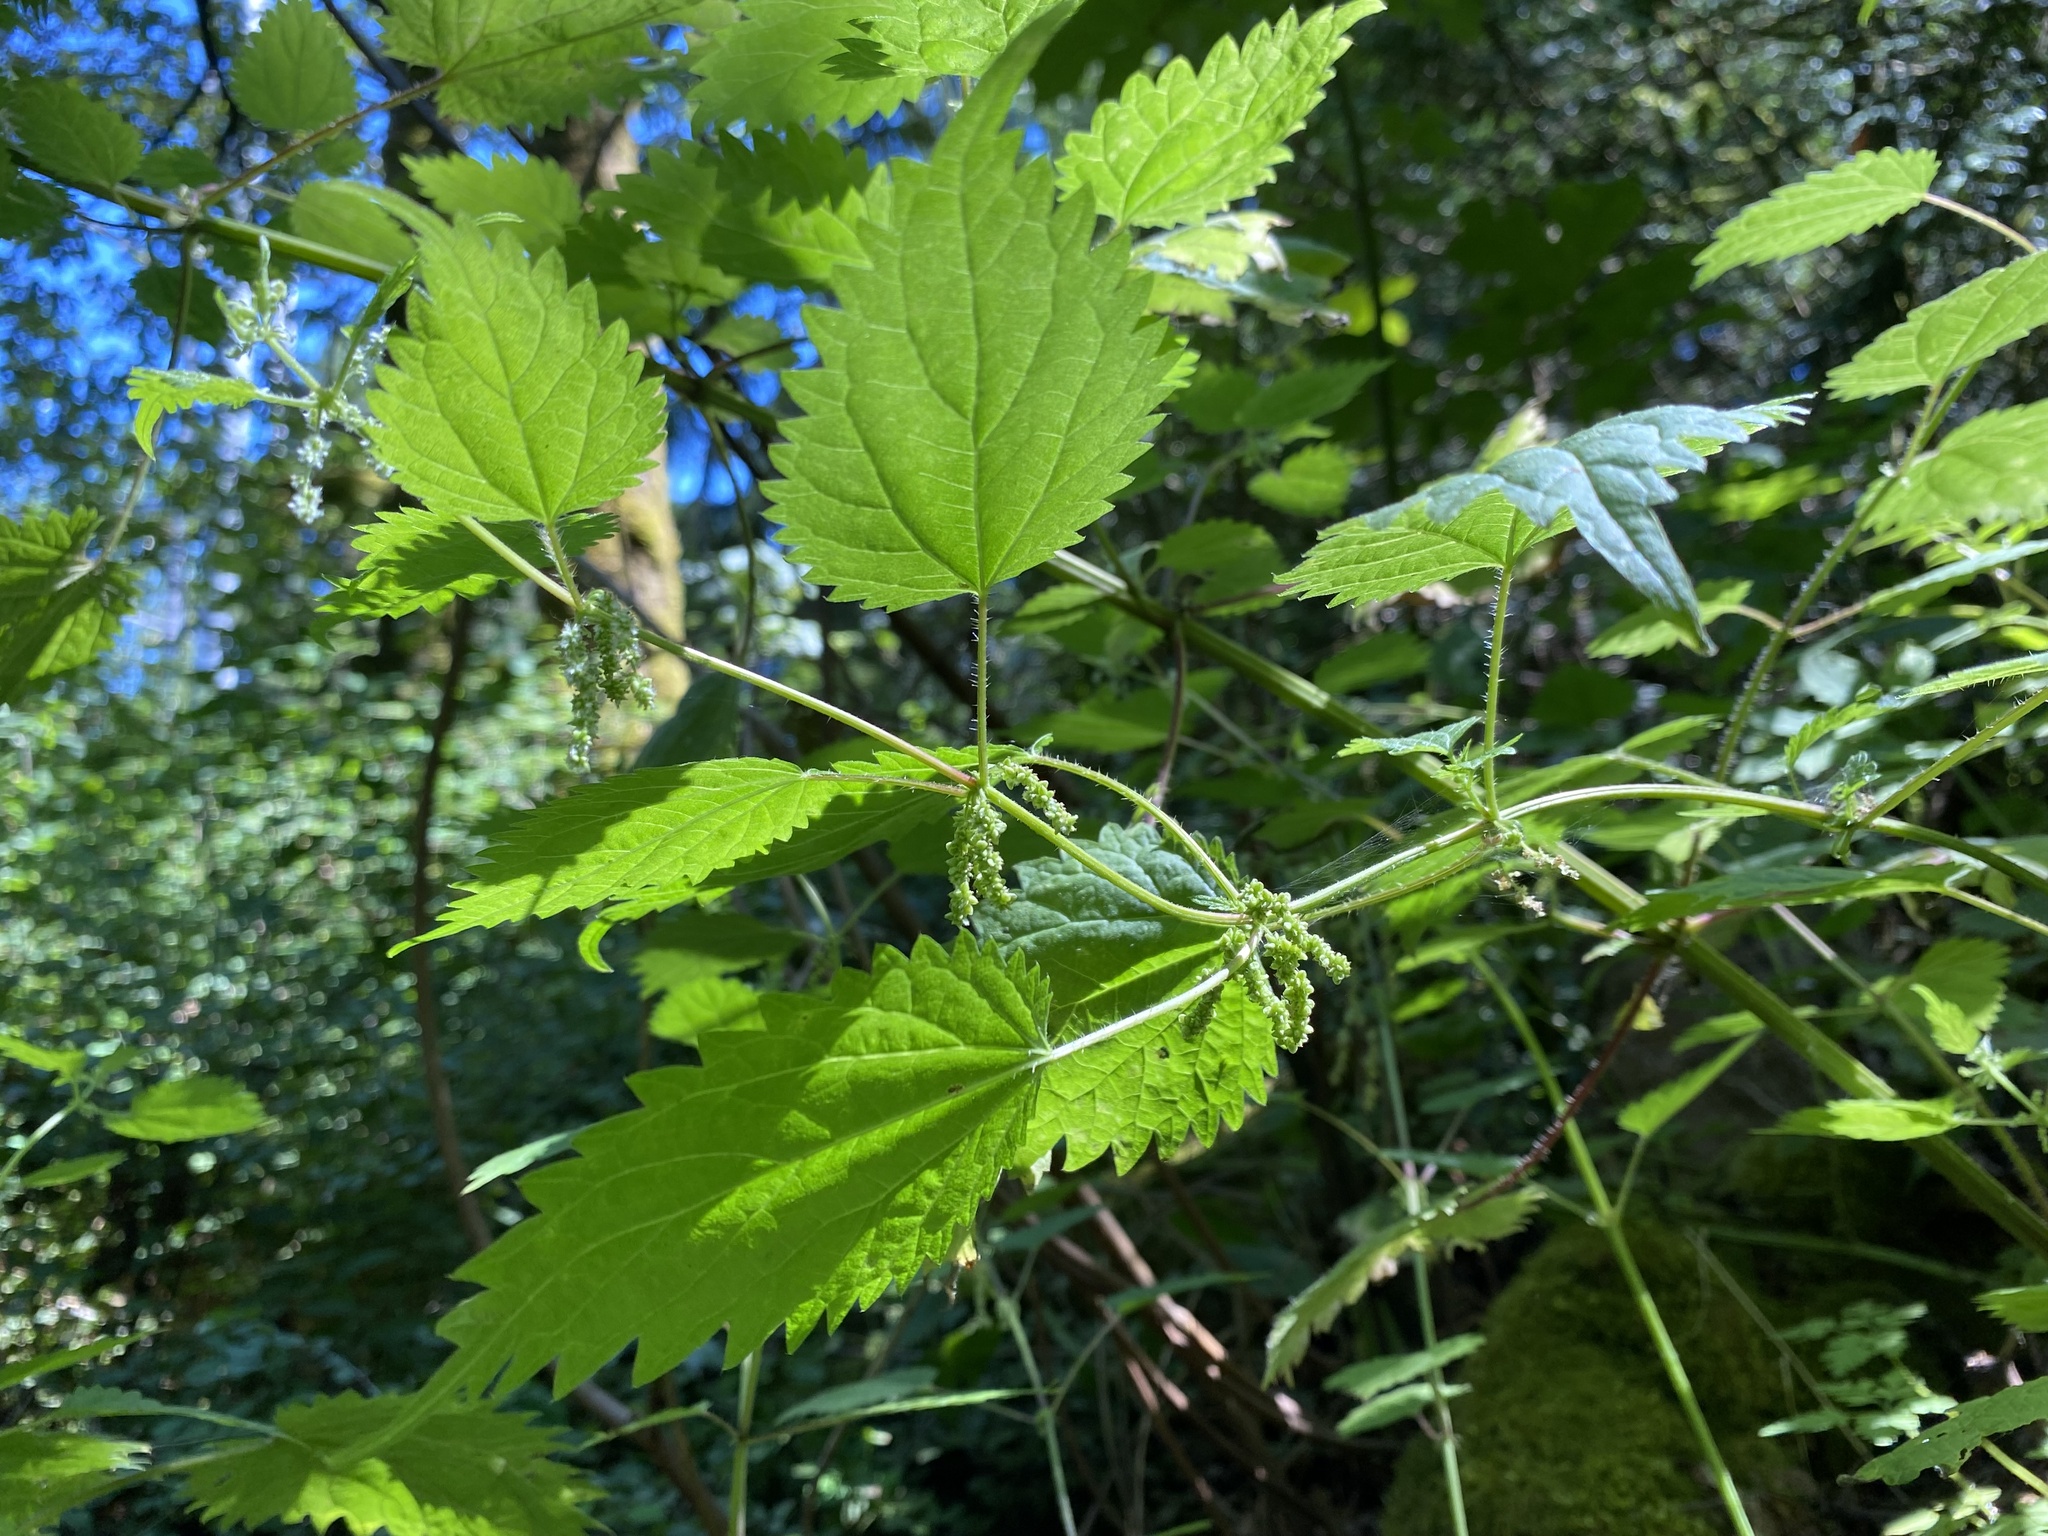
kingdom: Plantae
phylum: Tracheophyta
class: Magnoliopsida
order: Rosales
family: Urticaceae
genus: Urtica
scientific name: Urtica gracilis
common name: Slender stinging nettle
